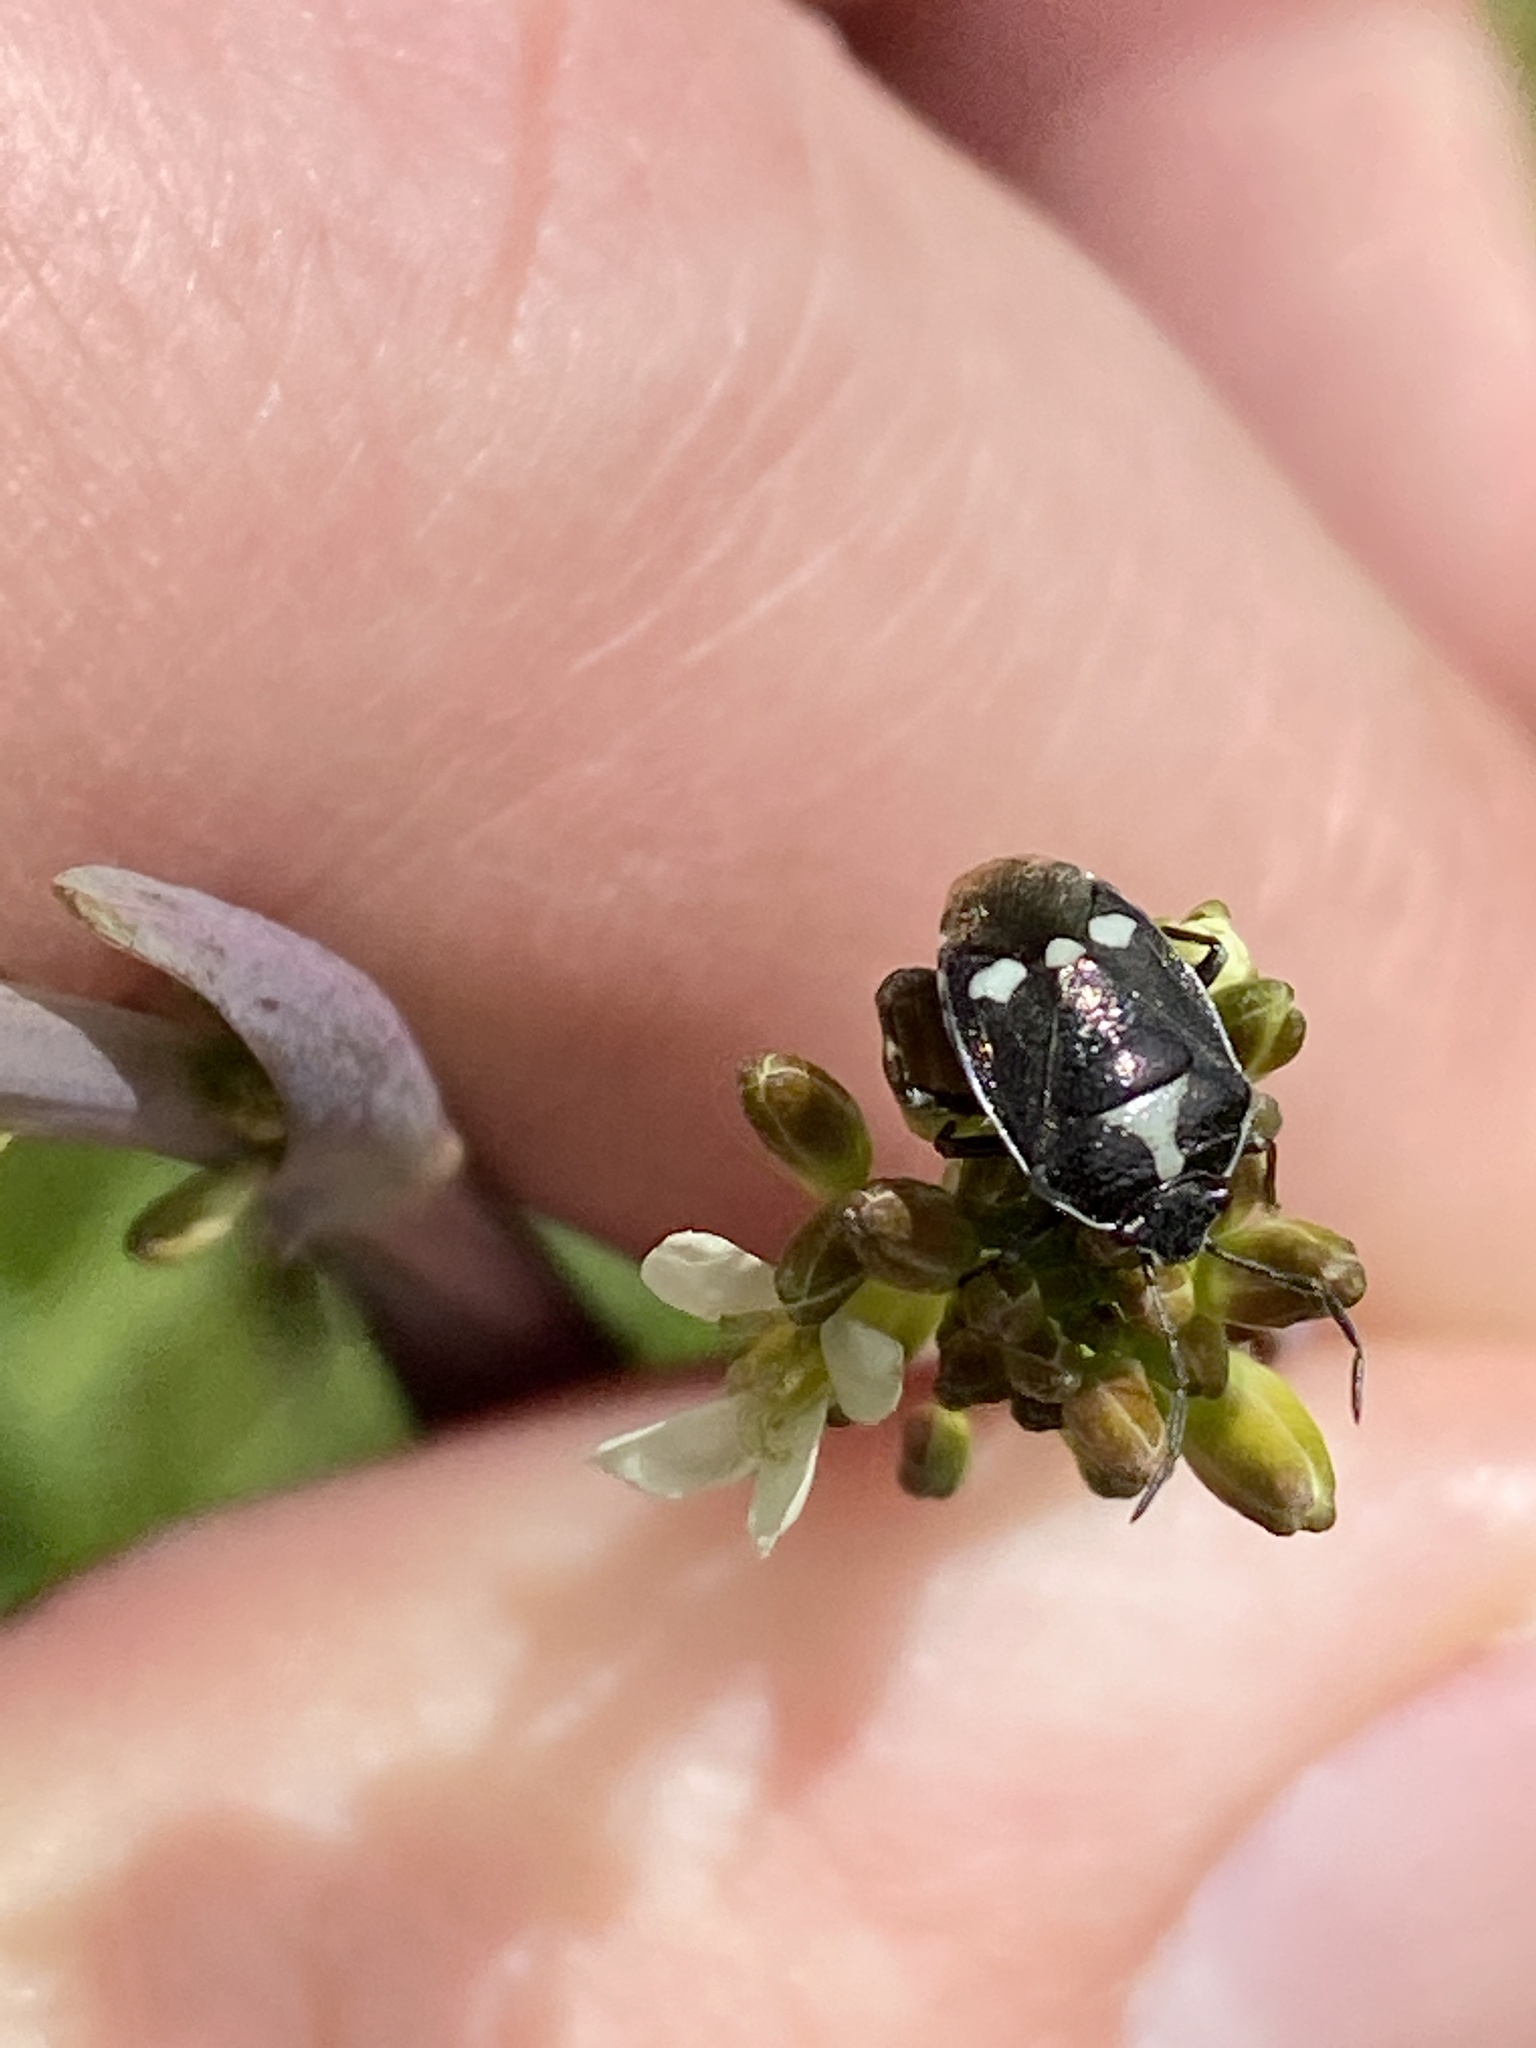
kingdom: Animalia
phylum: Arthropoda
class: Insecta
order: Hemiptera
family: Pentatomidae
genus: Eurydema
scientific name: Eurydema oleracea
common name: Cabbage bug
